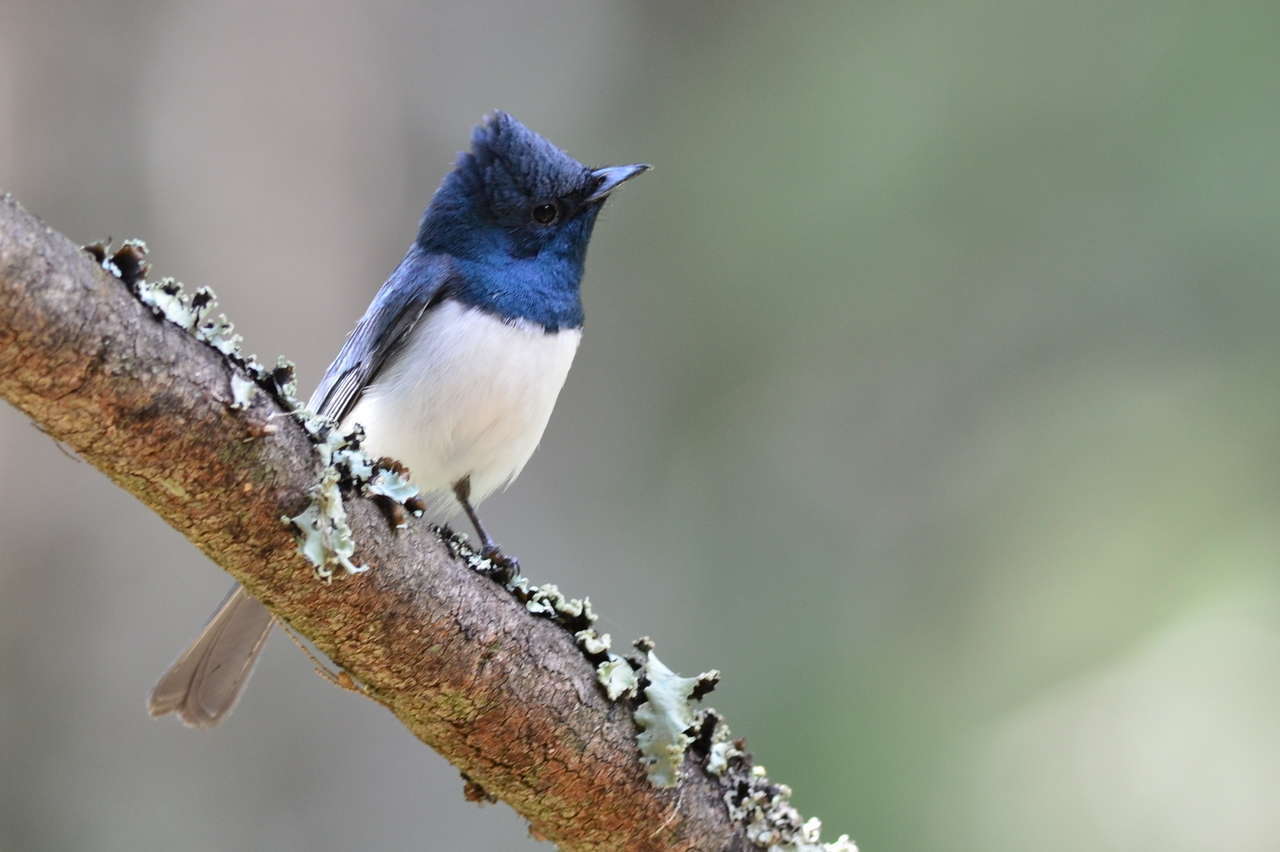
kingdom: Animalia
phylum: Chordata
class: Aves
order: Passeriformes
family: Monarchidae
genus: Myiagra
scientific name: Myiagra rubecula
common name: Leaden flycatcher
